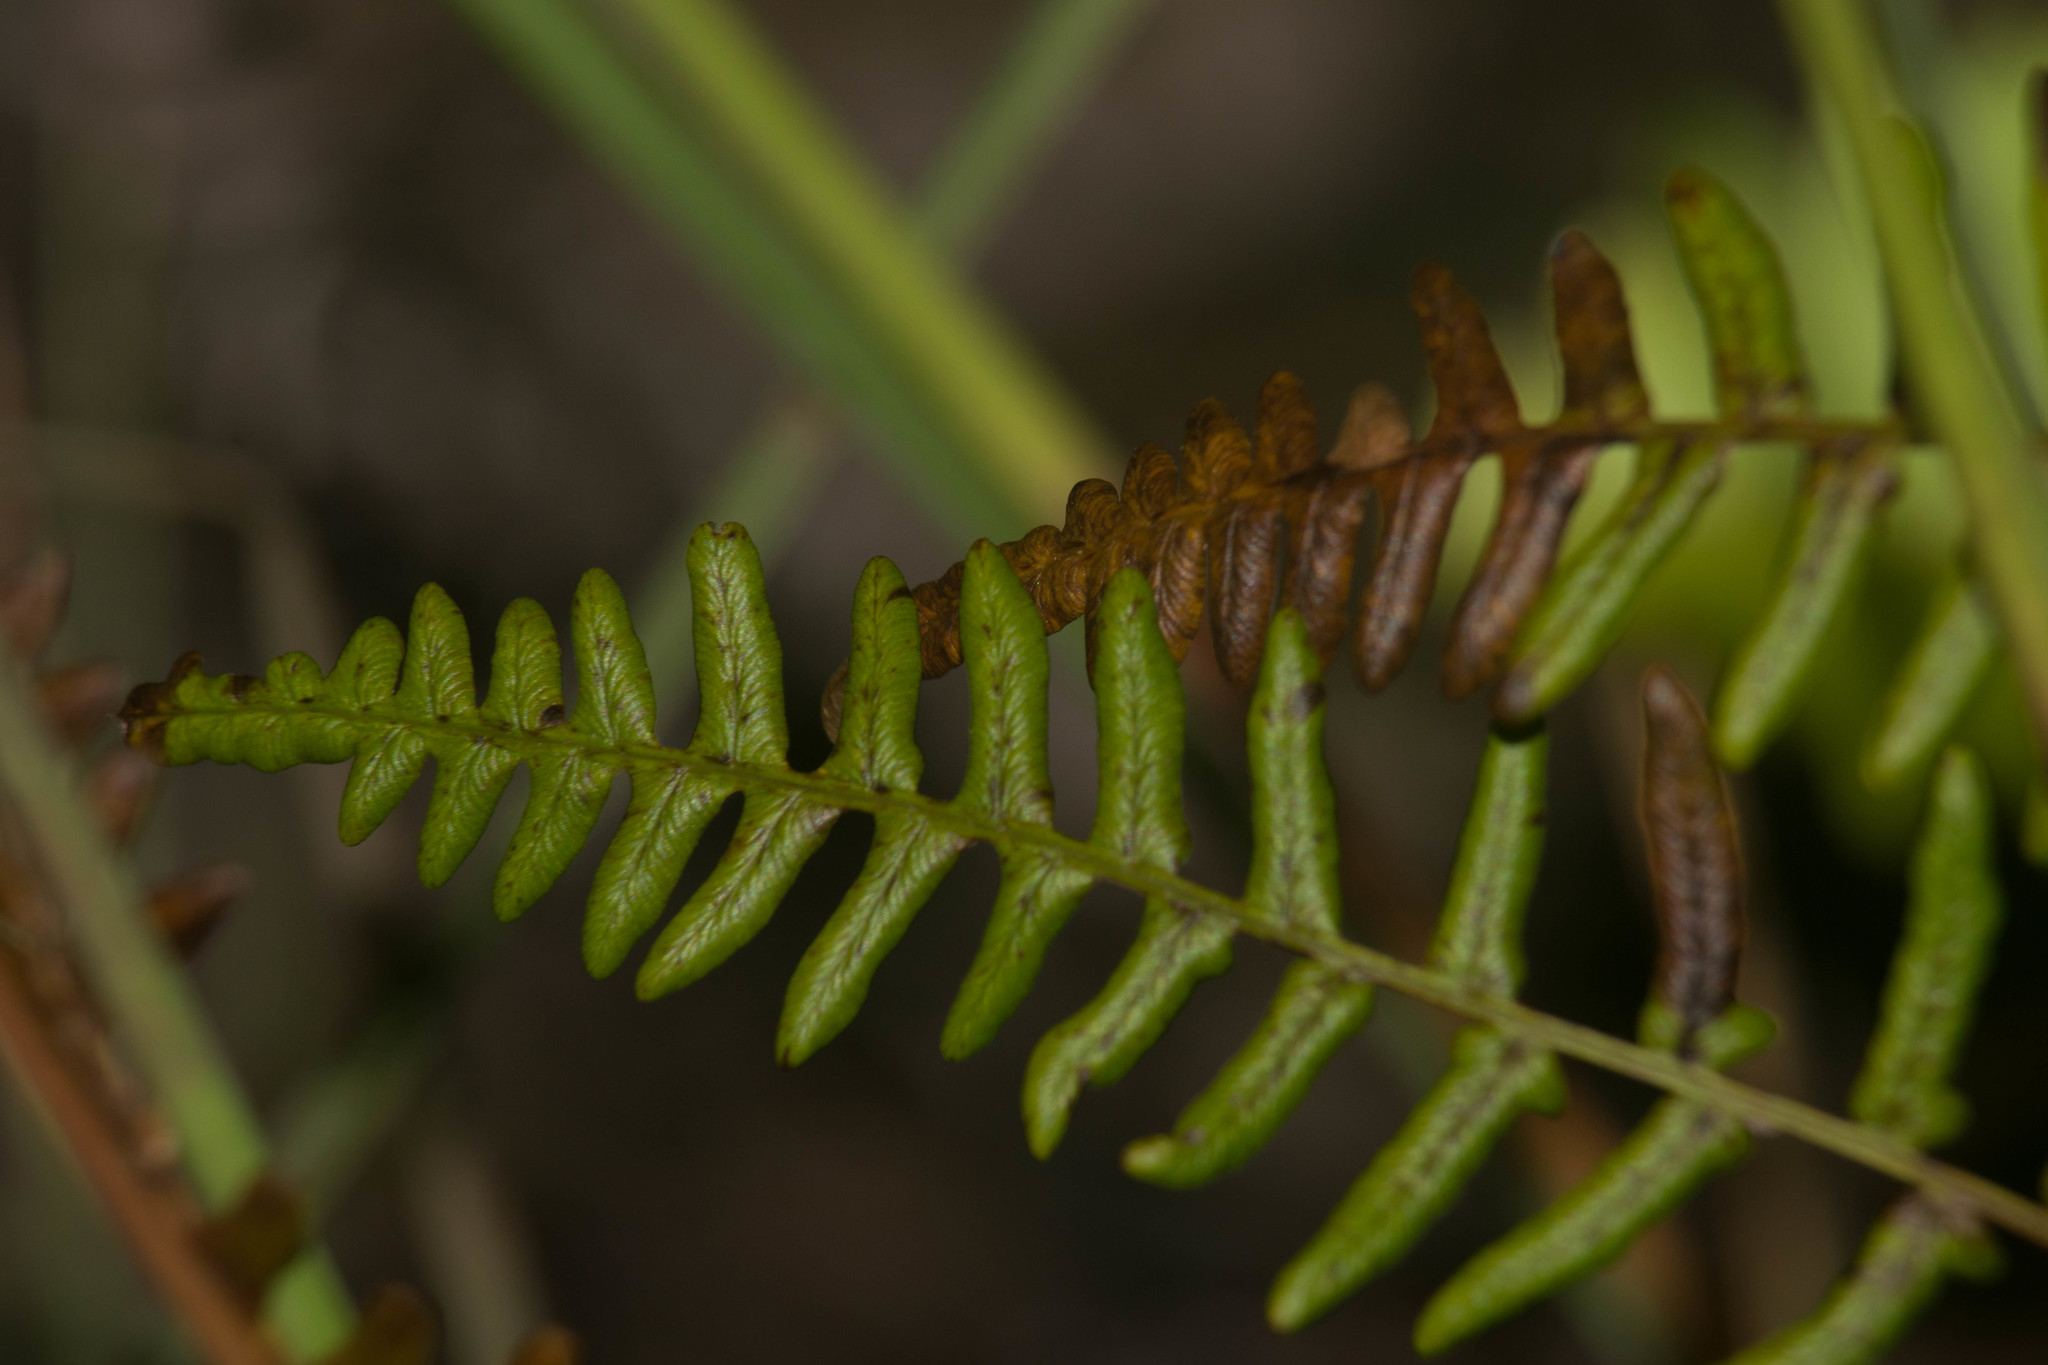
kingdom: Plantae
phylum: Tracheophyta
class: Polypodiopsida
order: Polypodiales
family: Dennstaedtiaceae
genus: Pteridium
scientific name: Pteridium aquilinum
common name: Bracken
